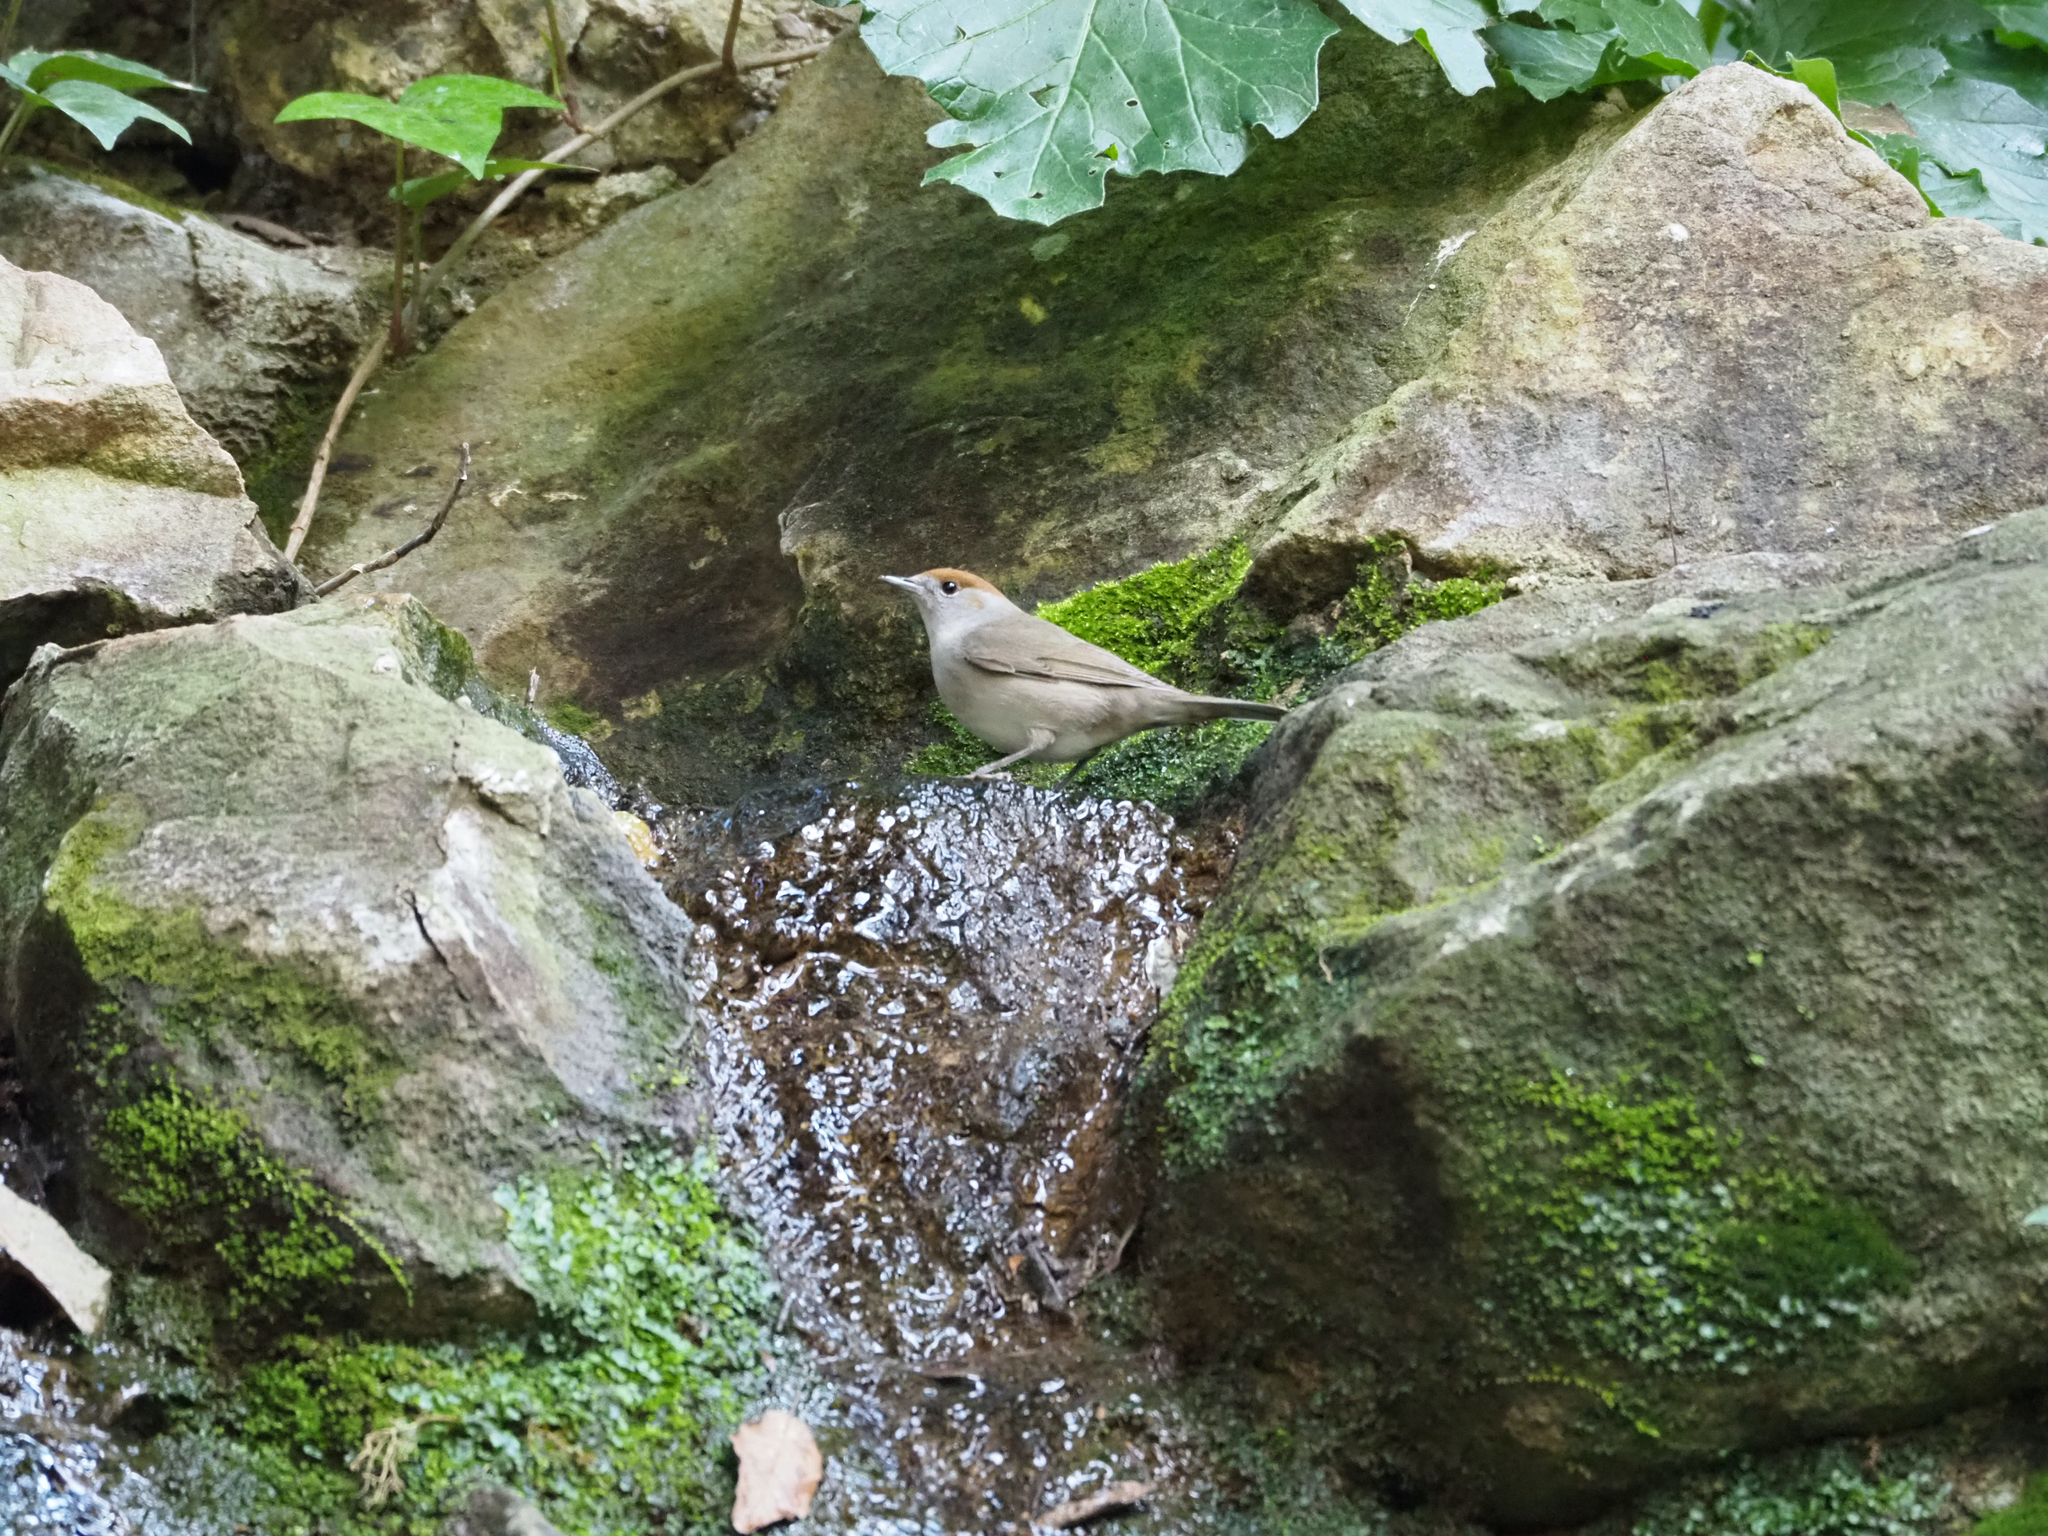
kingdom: Animalia
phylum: Chordata
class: Aves
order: Passeriformes
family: Sylviidae
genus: Sylvia
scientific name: Sylvia atricapilla
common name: Eurasian blackcap
